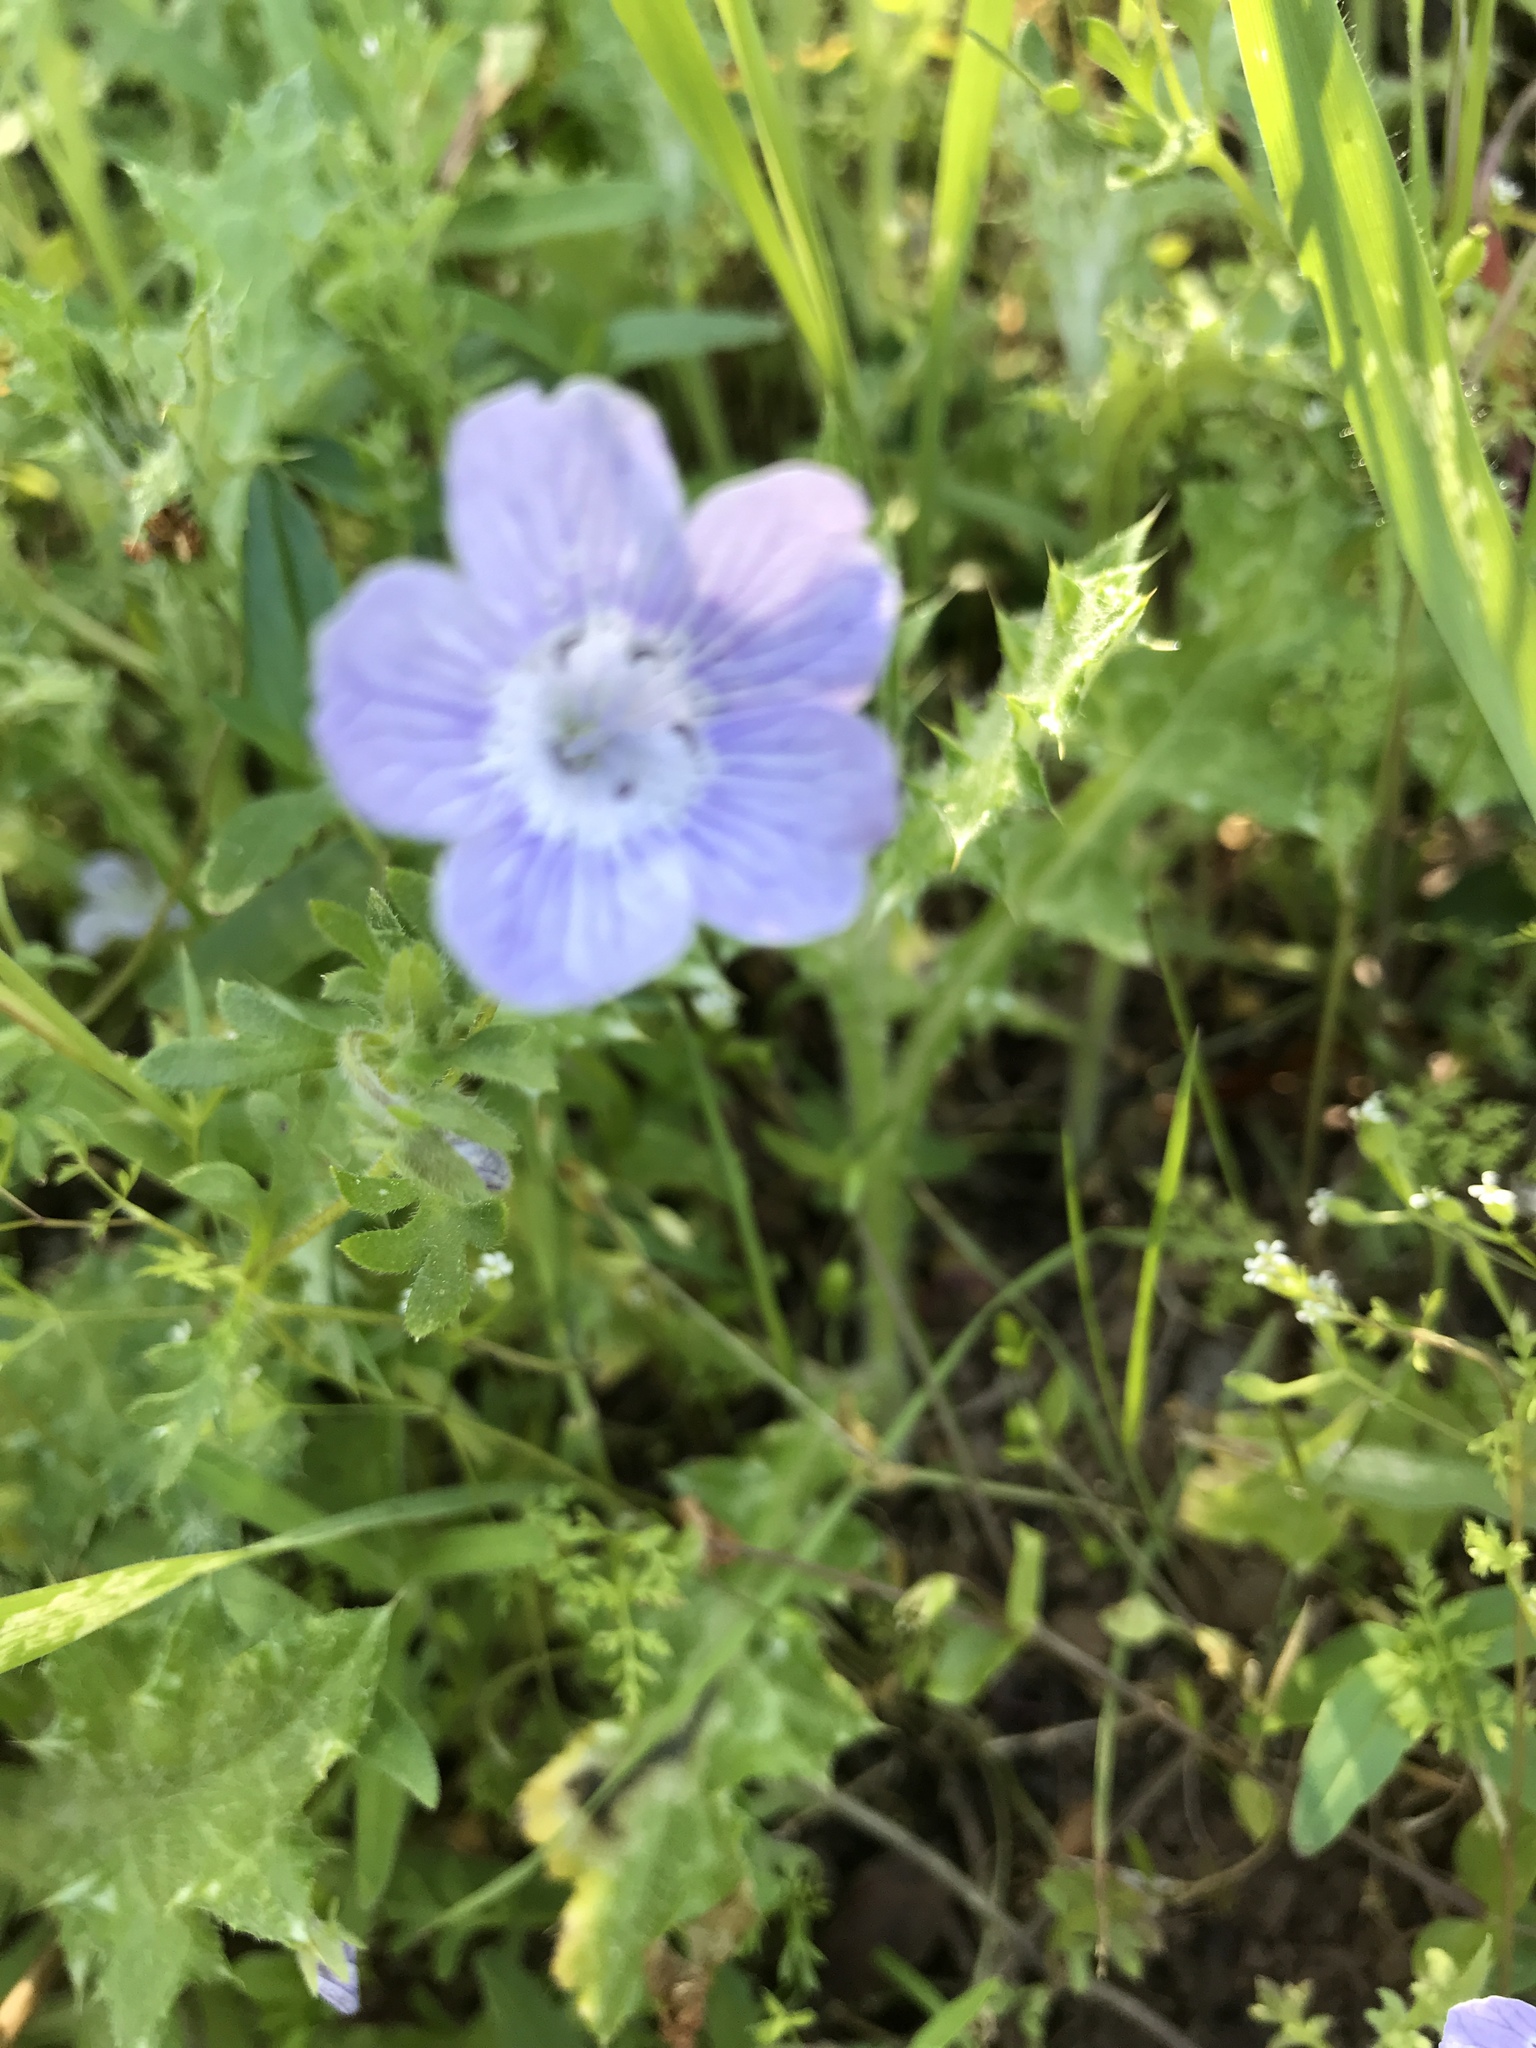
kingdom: Plantae
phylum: Tracheophyta
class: Magnoliopsida
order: Boraginales
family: Hydrophyllaceae
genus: Nemophila
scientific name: Nemophila menziesii
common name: Baby's-blue-eyes
